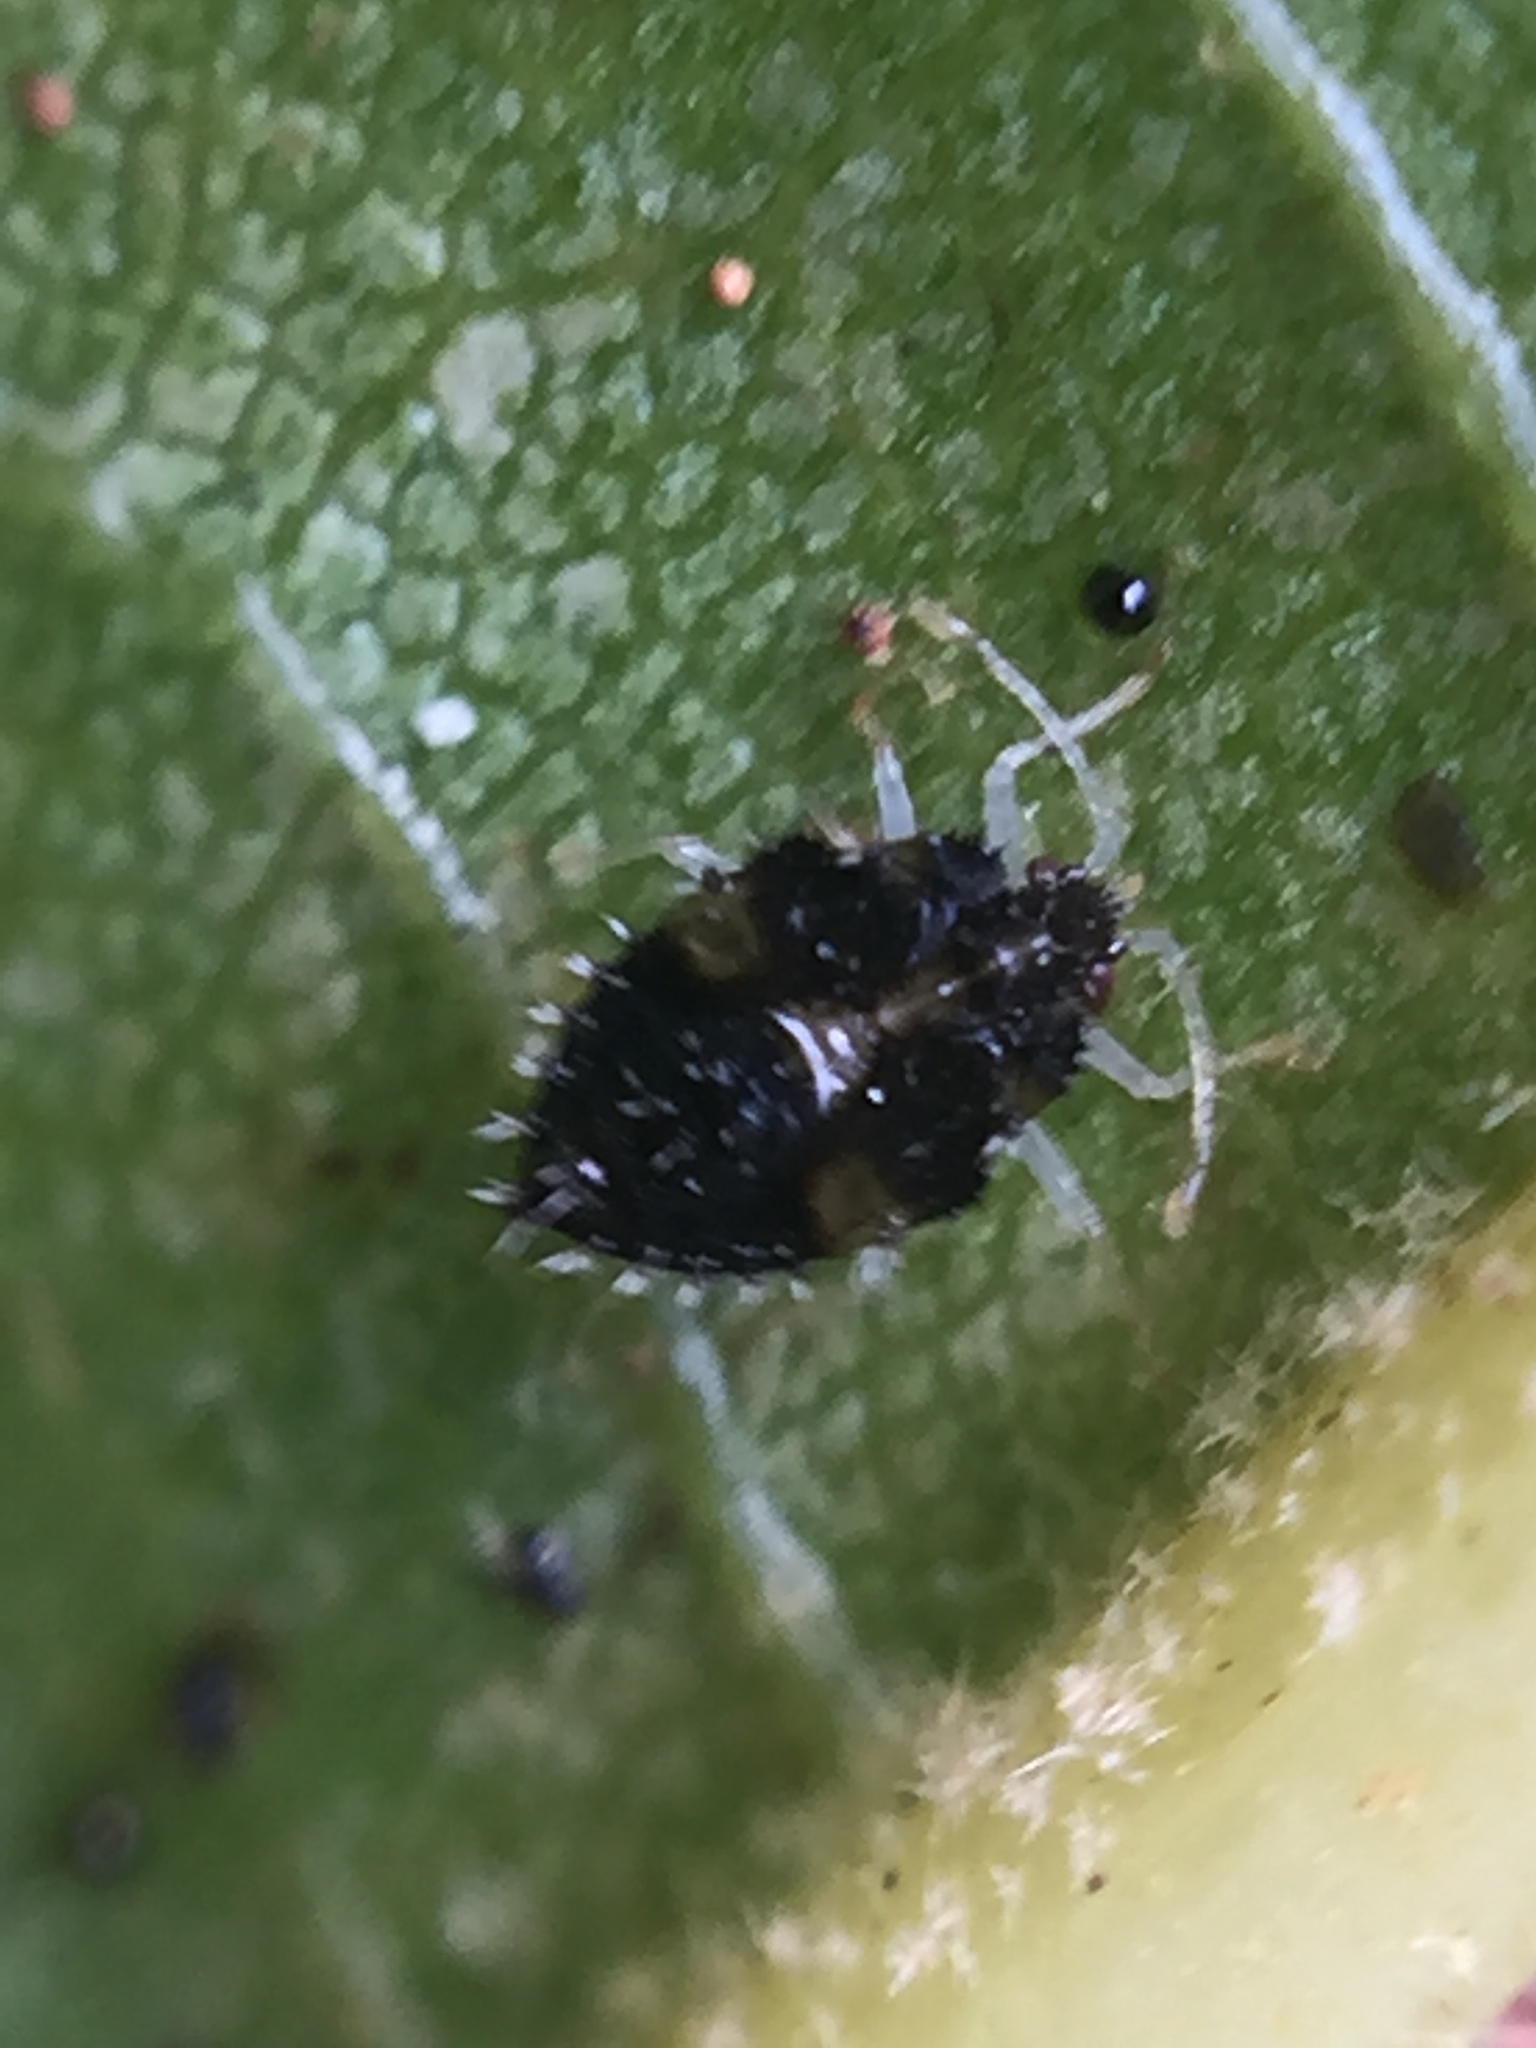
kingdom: Animalia
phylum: Arthropoda
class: Insecta
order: Hemiptera
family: Tingidae
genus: Corythucha
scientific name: Corythucha ciliata
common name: Sycamore lace bug
